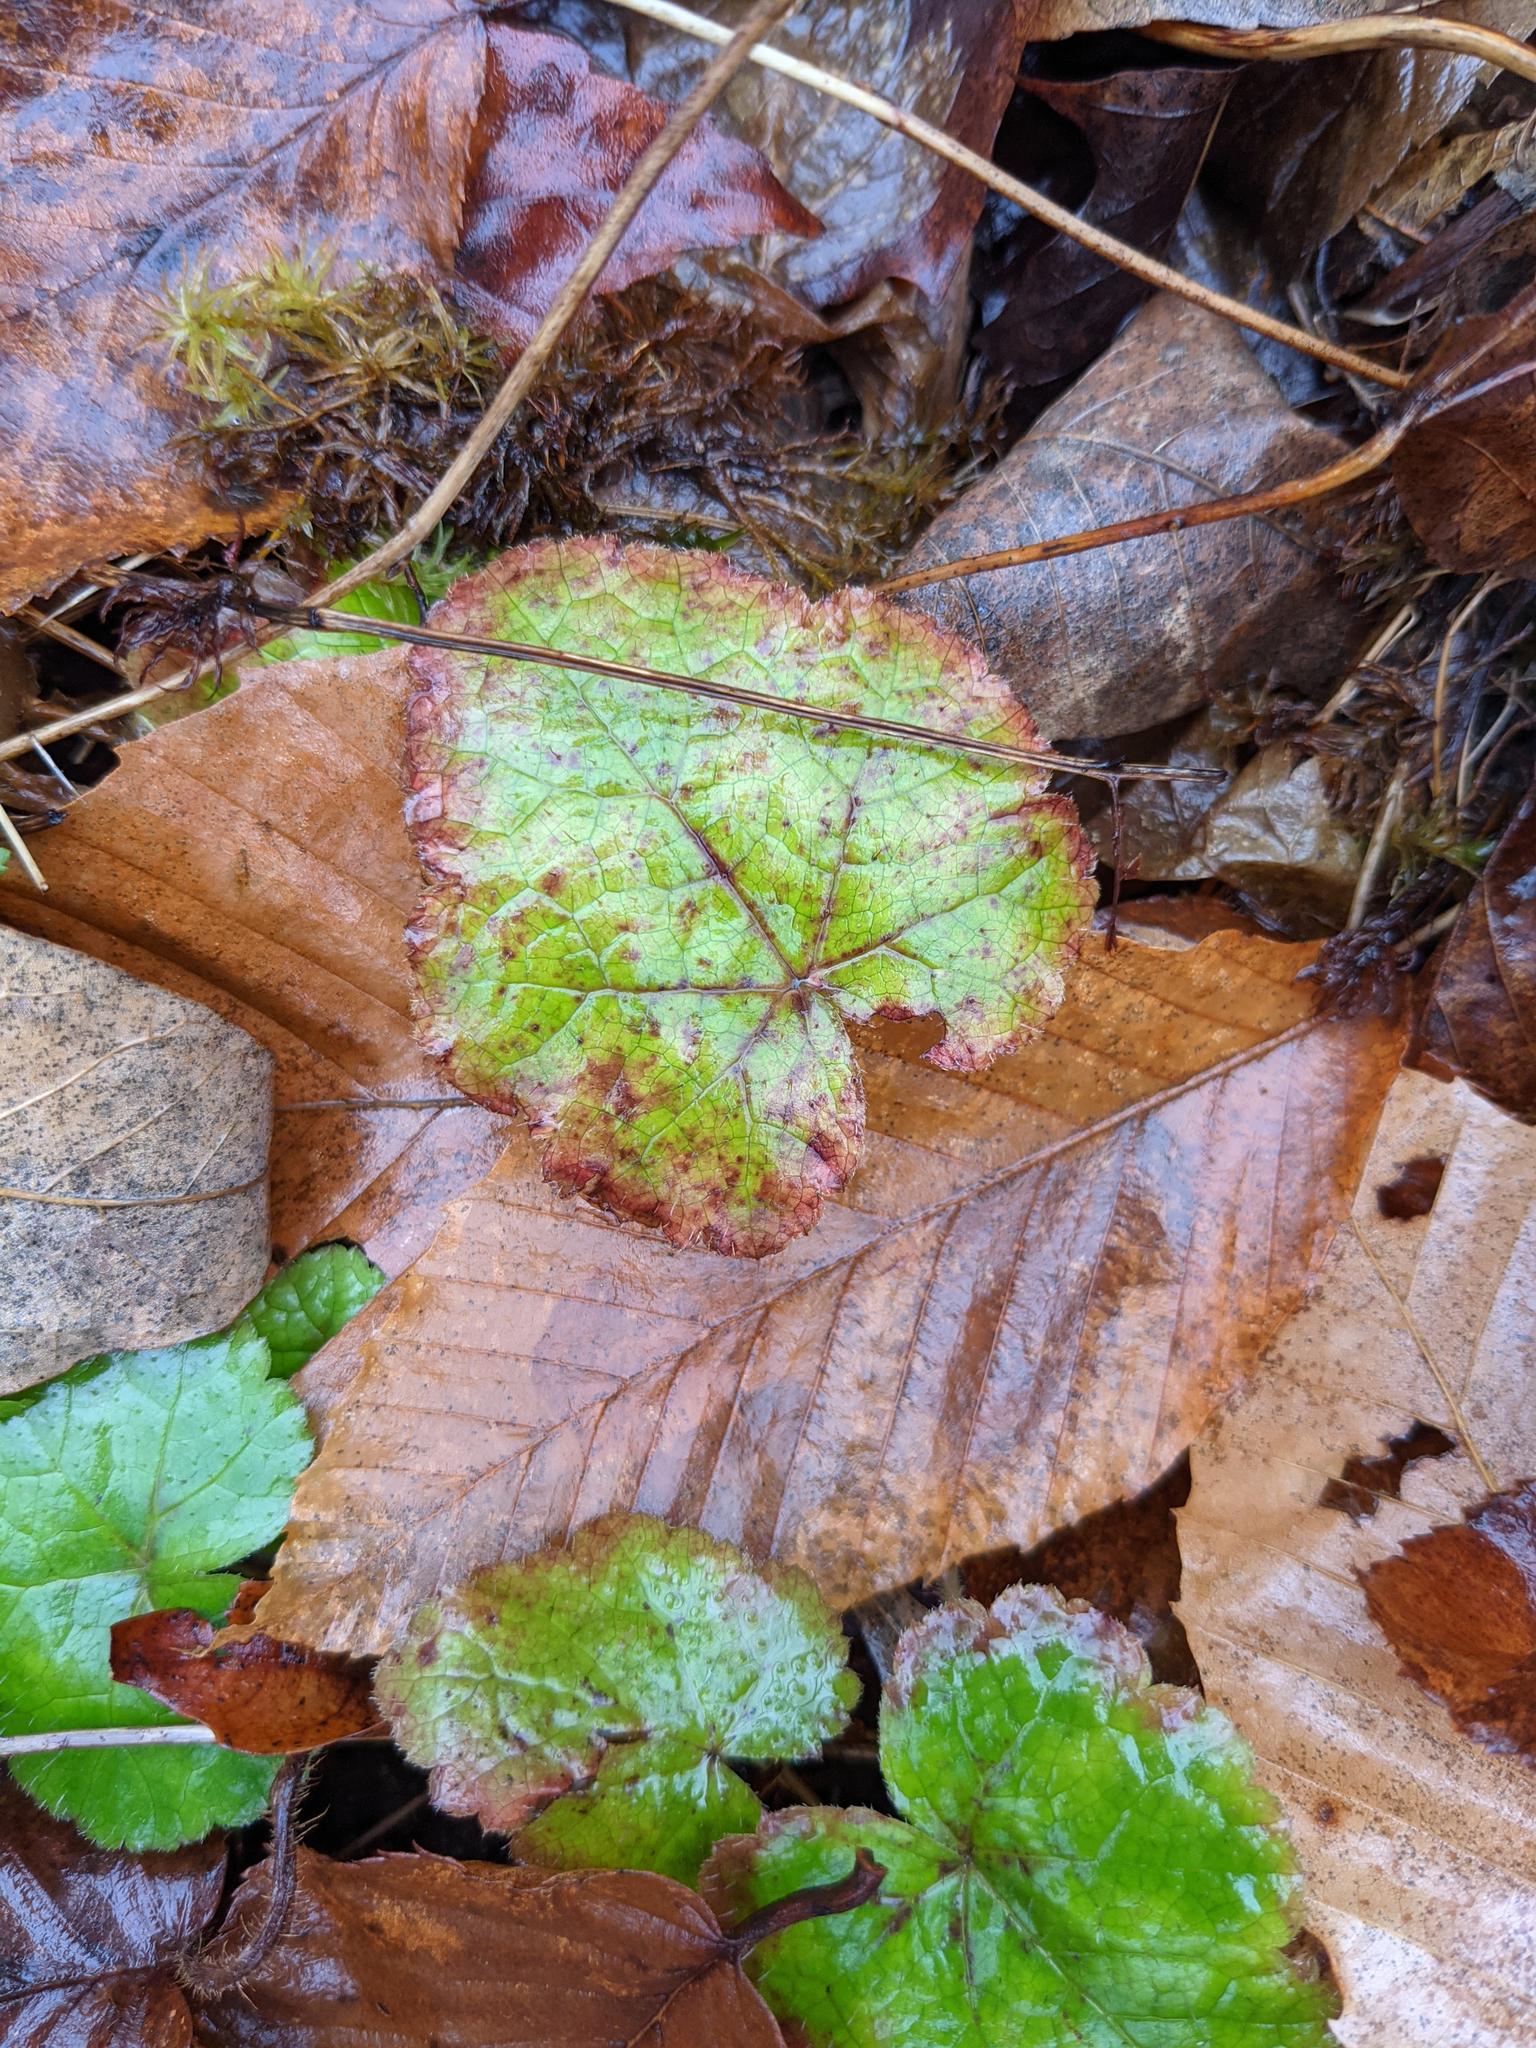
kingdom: Plantae
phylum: Tracheophyta
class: Magnoliopsida
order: Saxifragales
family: Saxifragaceae
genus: Tiarella
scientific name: Tiarella stolonifera
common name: Stoloniferous foamflower
